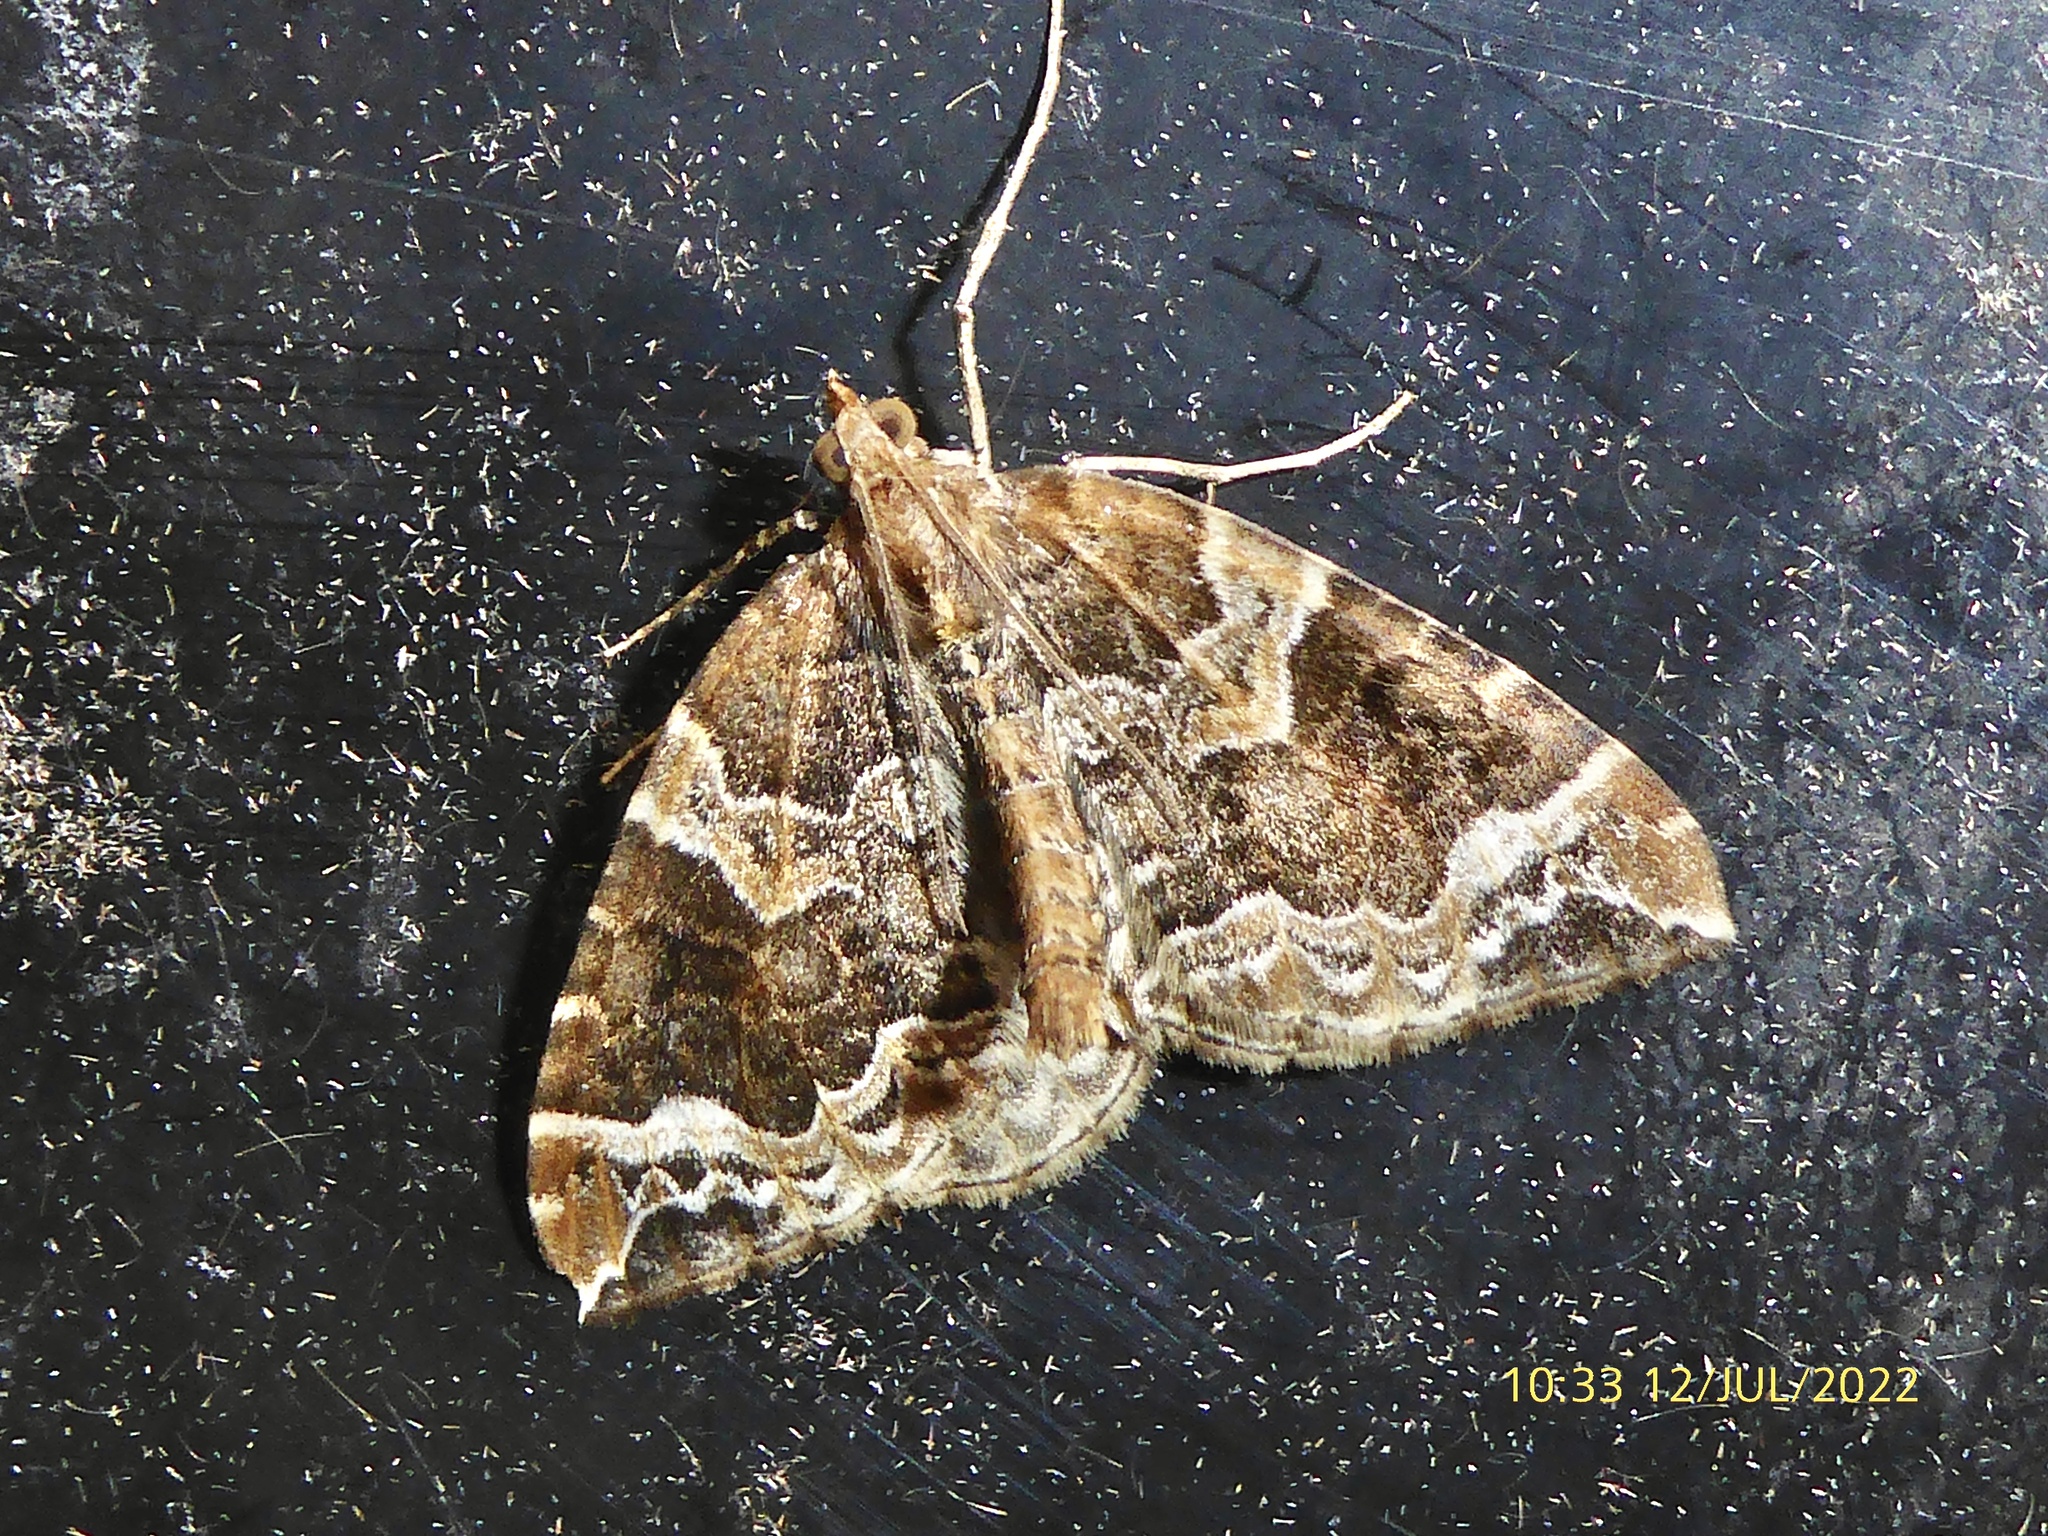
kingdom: Animalia
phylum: Arthropoda
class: Insecta
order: Lepidoptera
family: Geometridae
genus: Eulithis
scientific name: Eulithis prunata
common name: Phoenix
